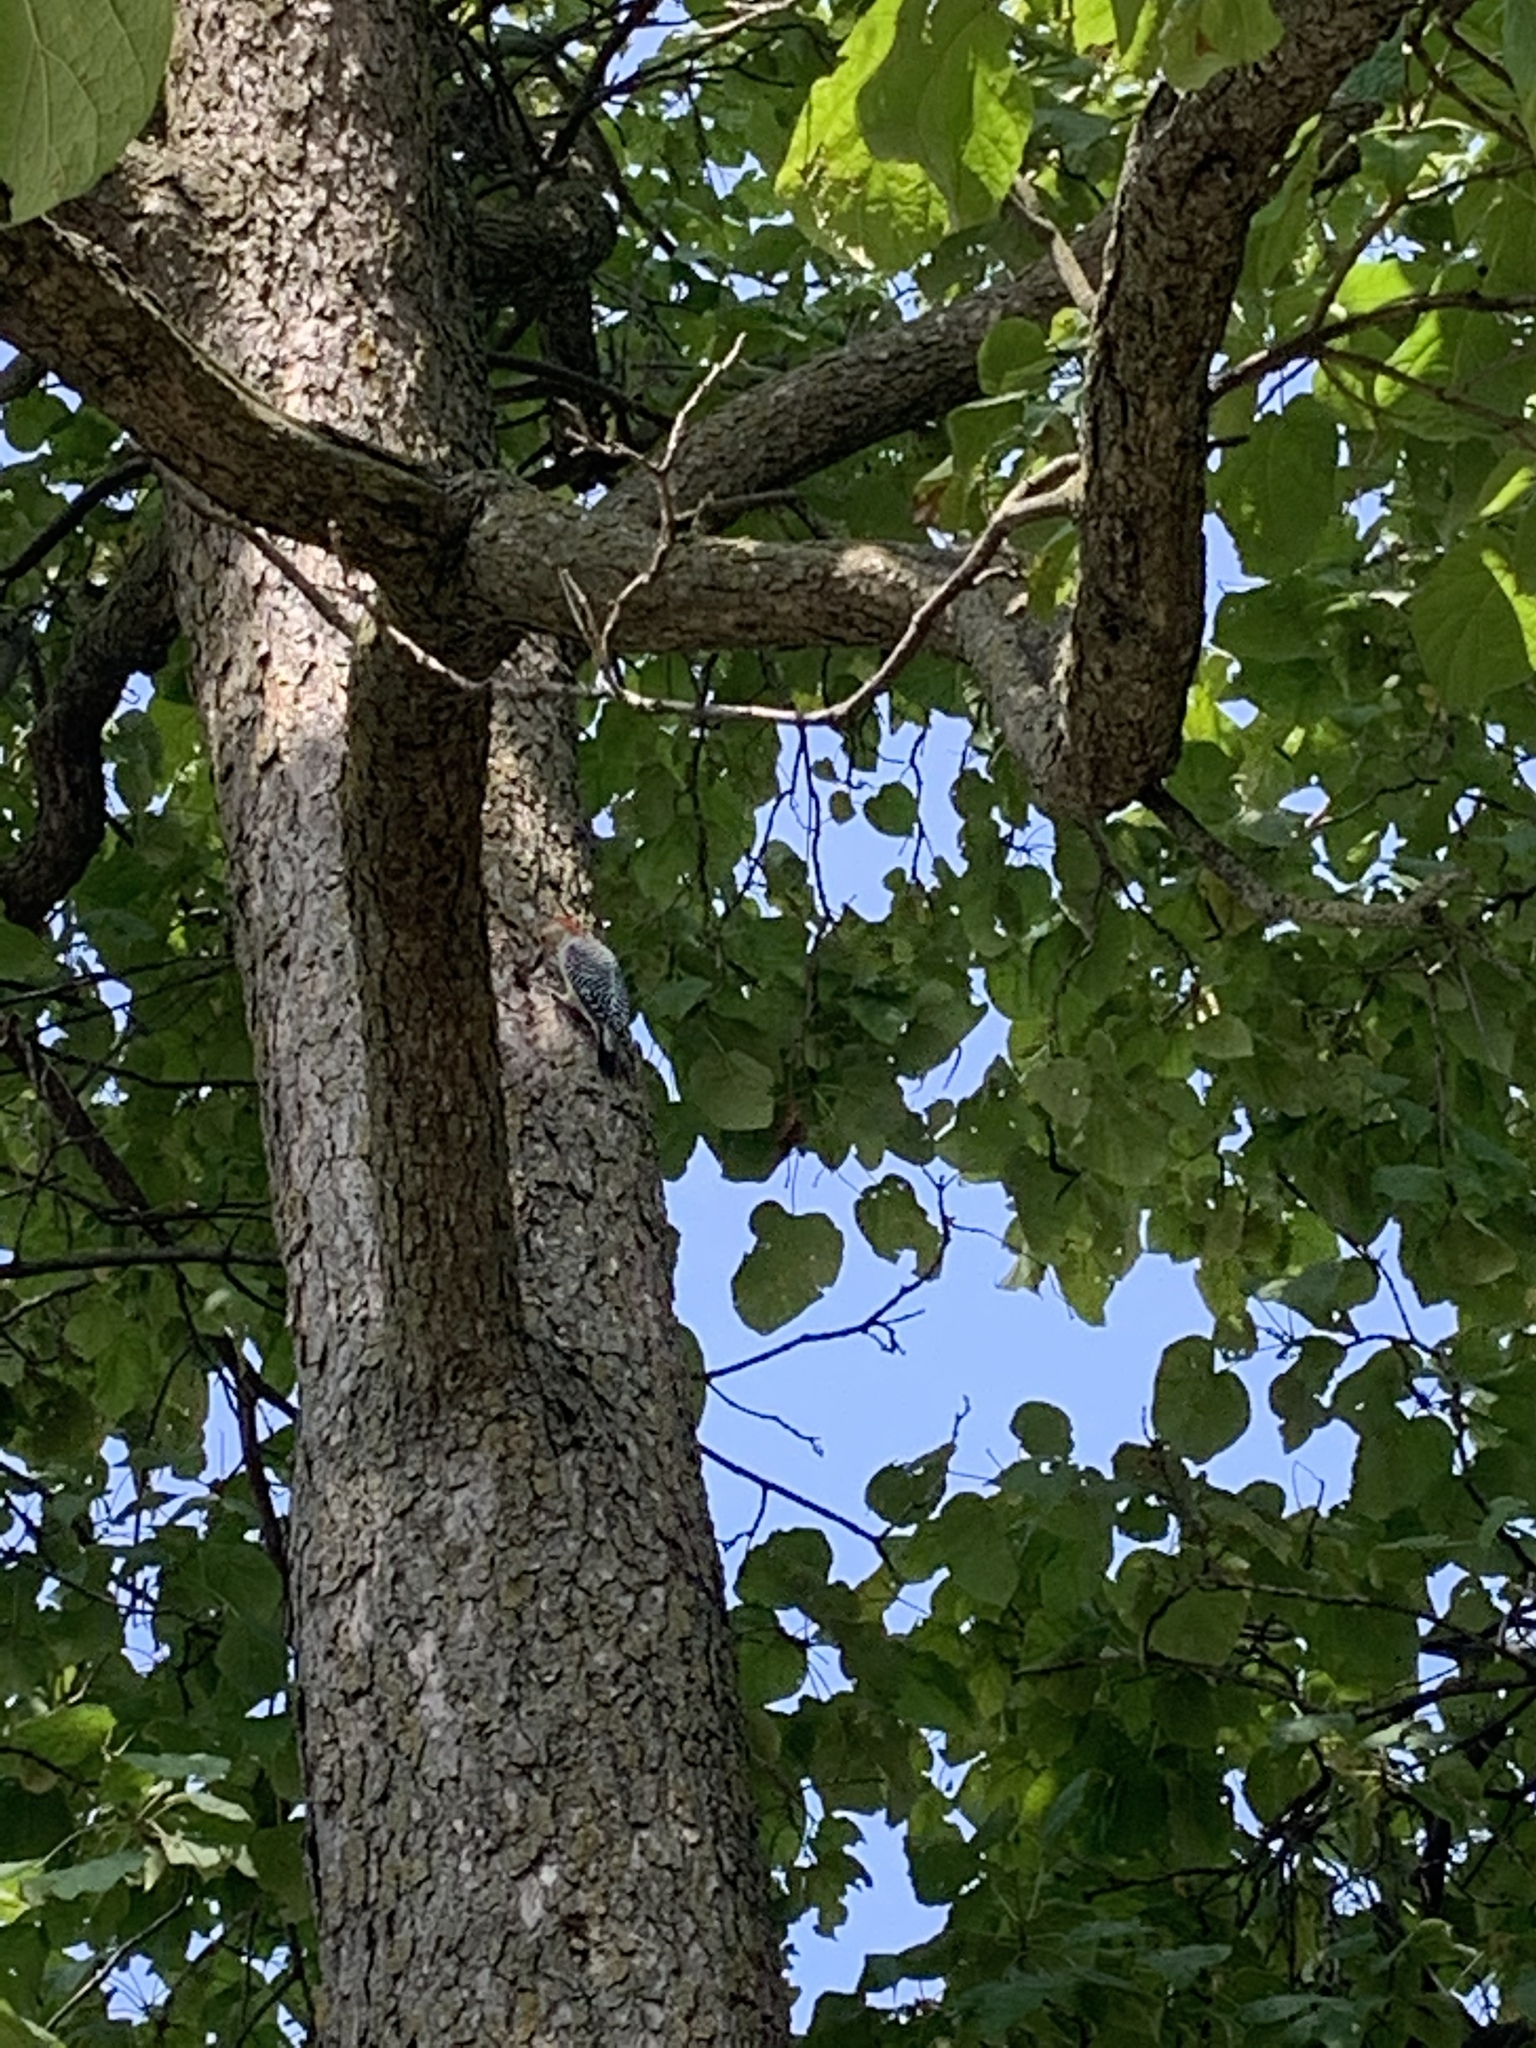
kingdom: Animalia
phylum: Chordata
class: Aves
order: Piciformes
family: Picidae
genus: Melanerpes
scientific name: Melanerpes carolinus
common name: Red-bellied woodpecker
